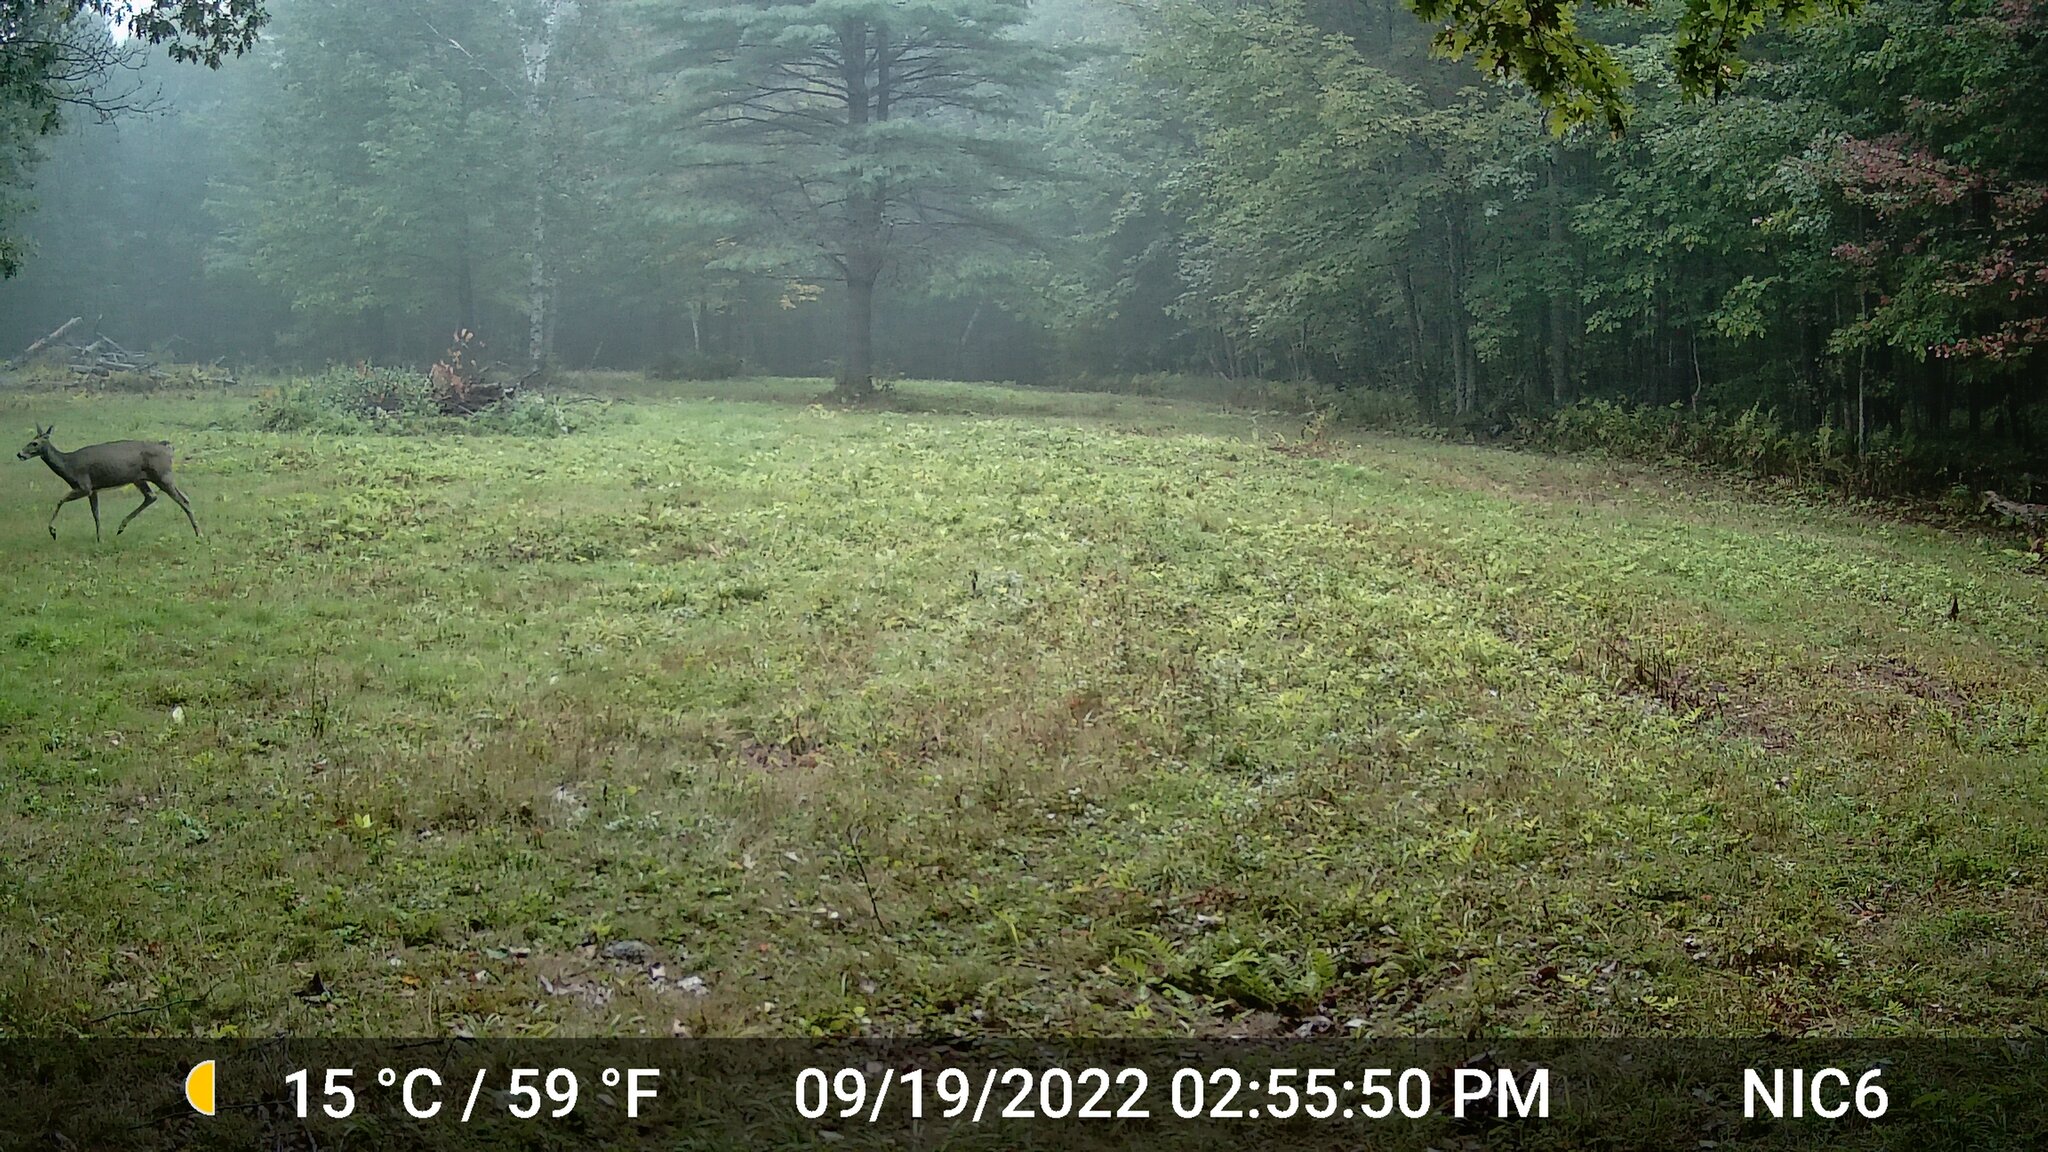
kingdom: Animalia
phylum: Chordata
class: Mammalia
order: Artiodactyla
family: Cervidae
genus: Odocoileus
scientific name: Odocoileus virginianus
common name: White-tailed deer
